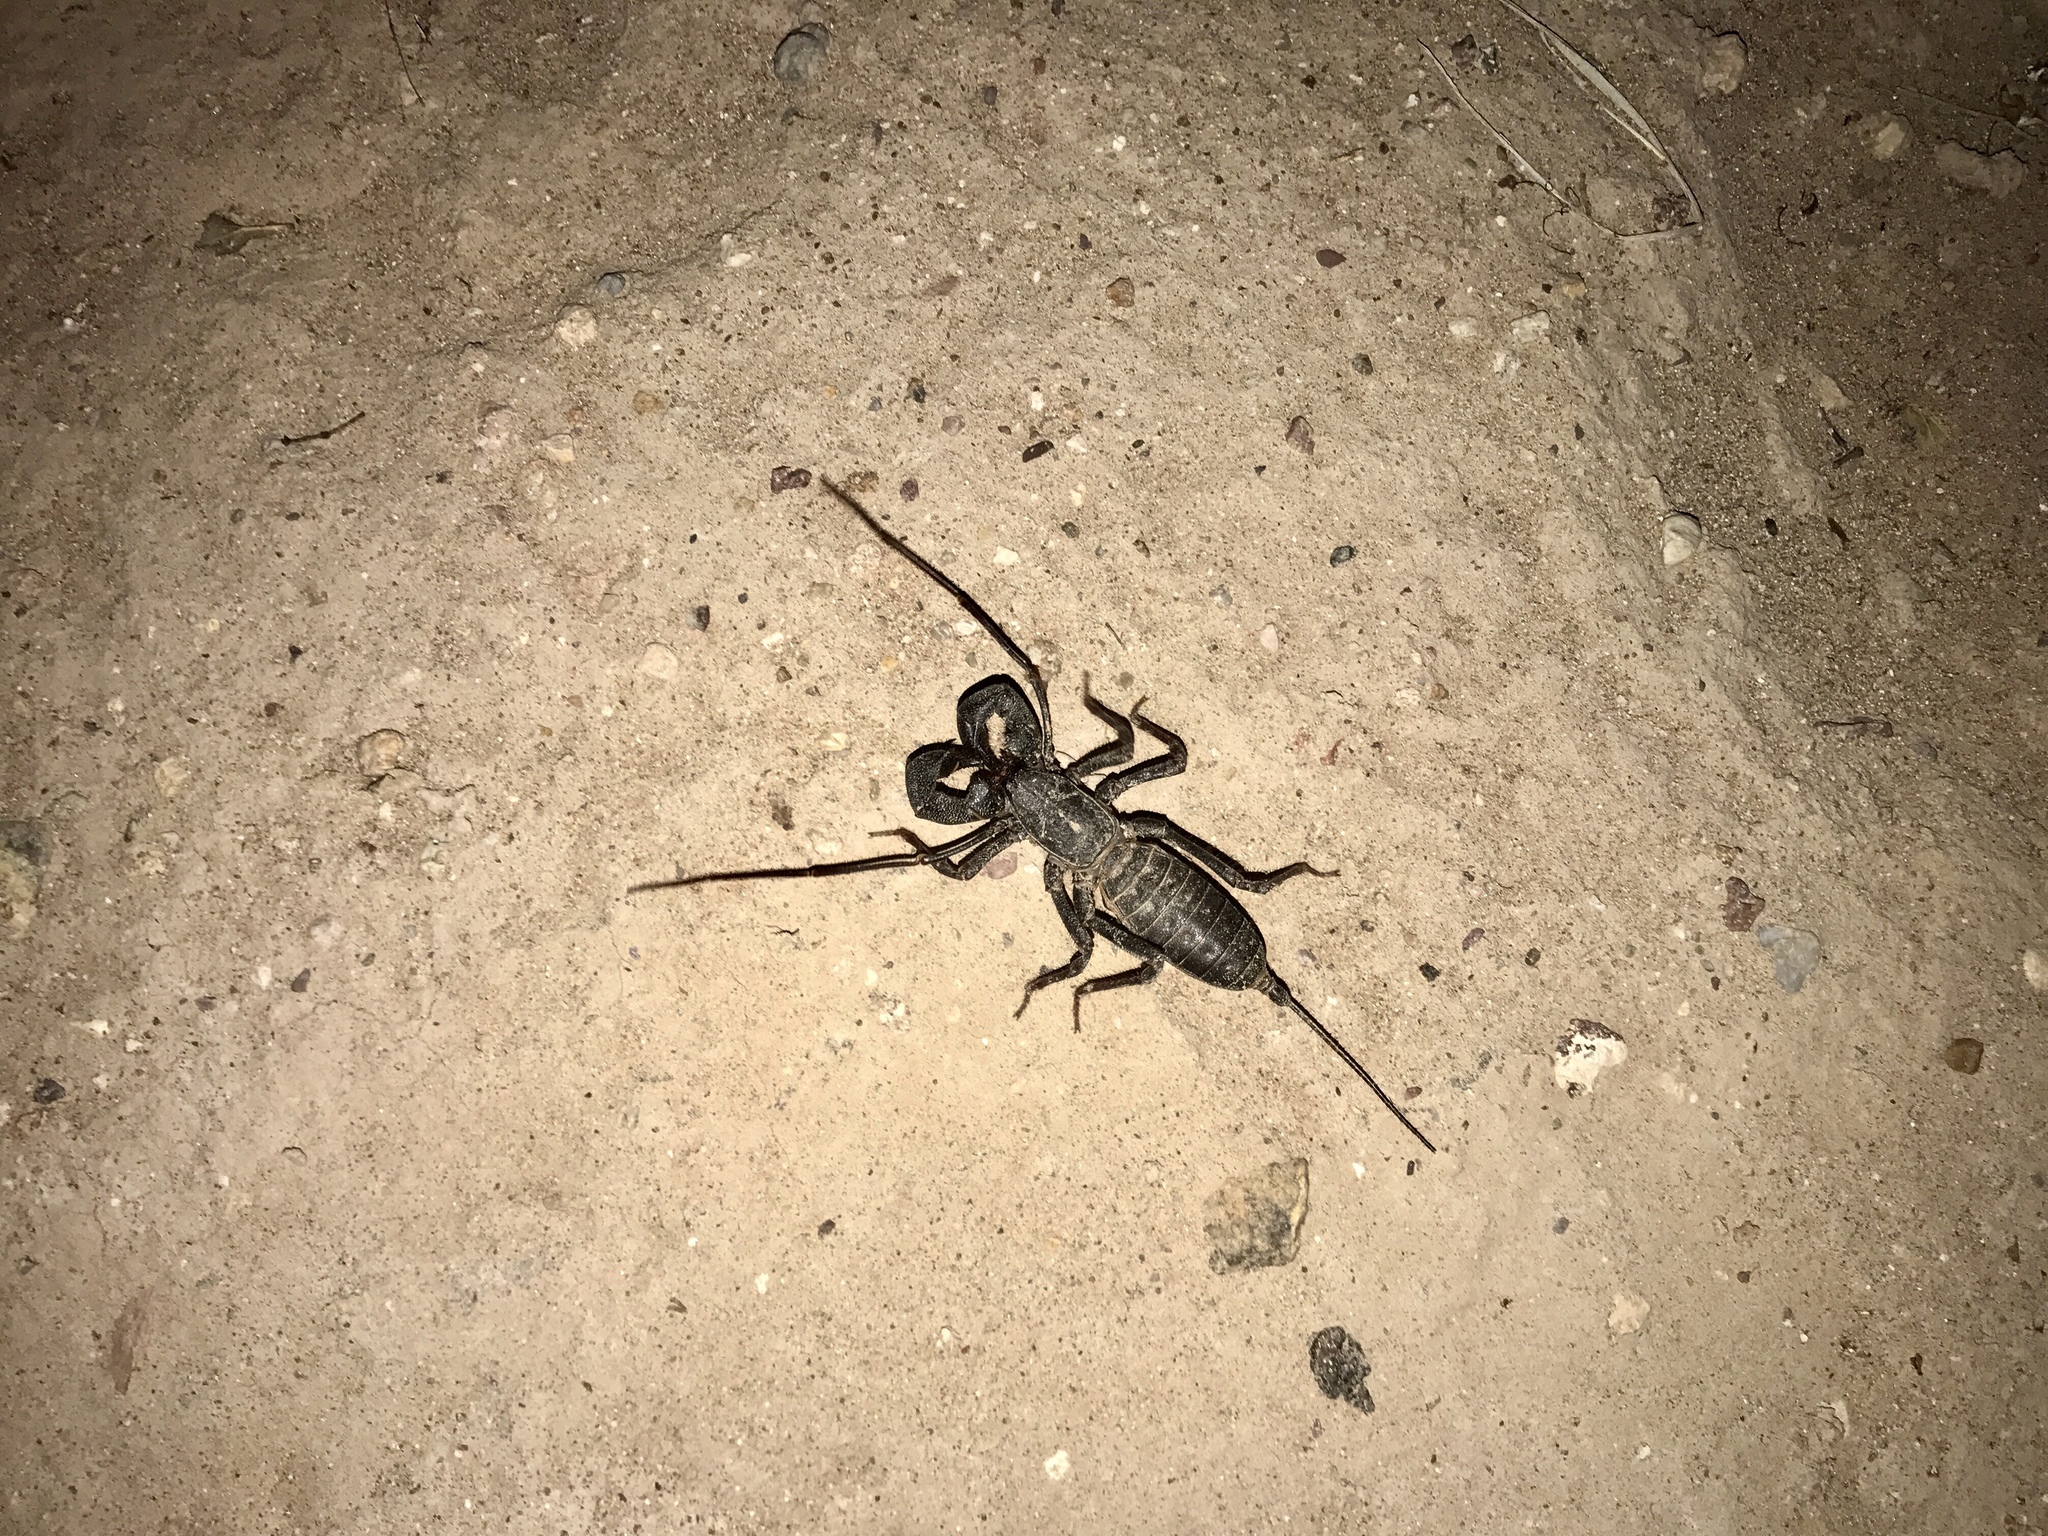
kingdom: Animalia
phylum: Arthropoda
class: Arachnida
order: Uropygi
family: Thelyphonidae
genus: Mastigoproctus
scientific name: Mastigoproctus tohono
